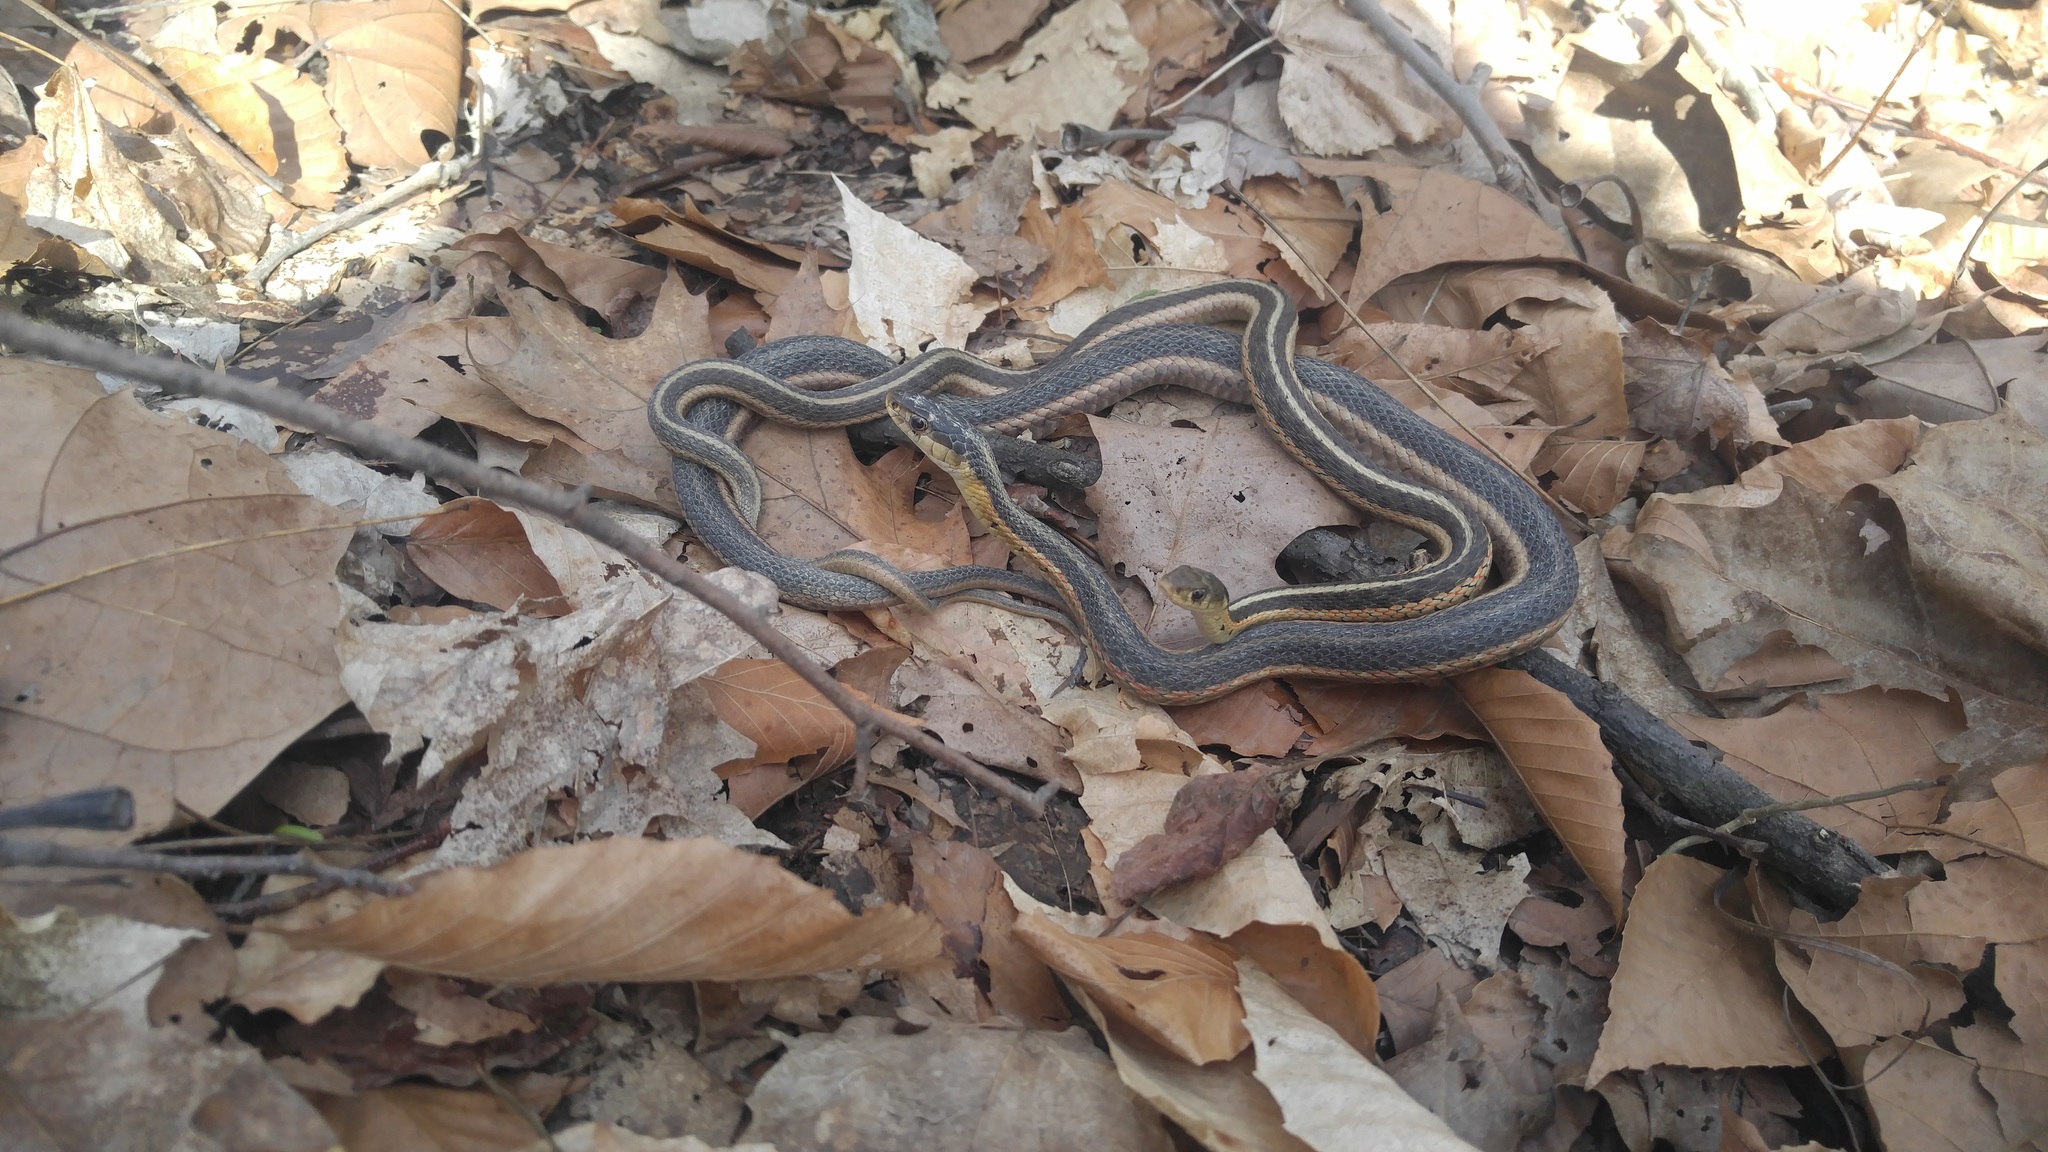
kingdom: Animalia
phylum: Chordata
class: Squamata
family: Colubridae
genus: Thamnophis
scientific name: Thamnophis sirtalis
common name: Common garter snake
